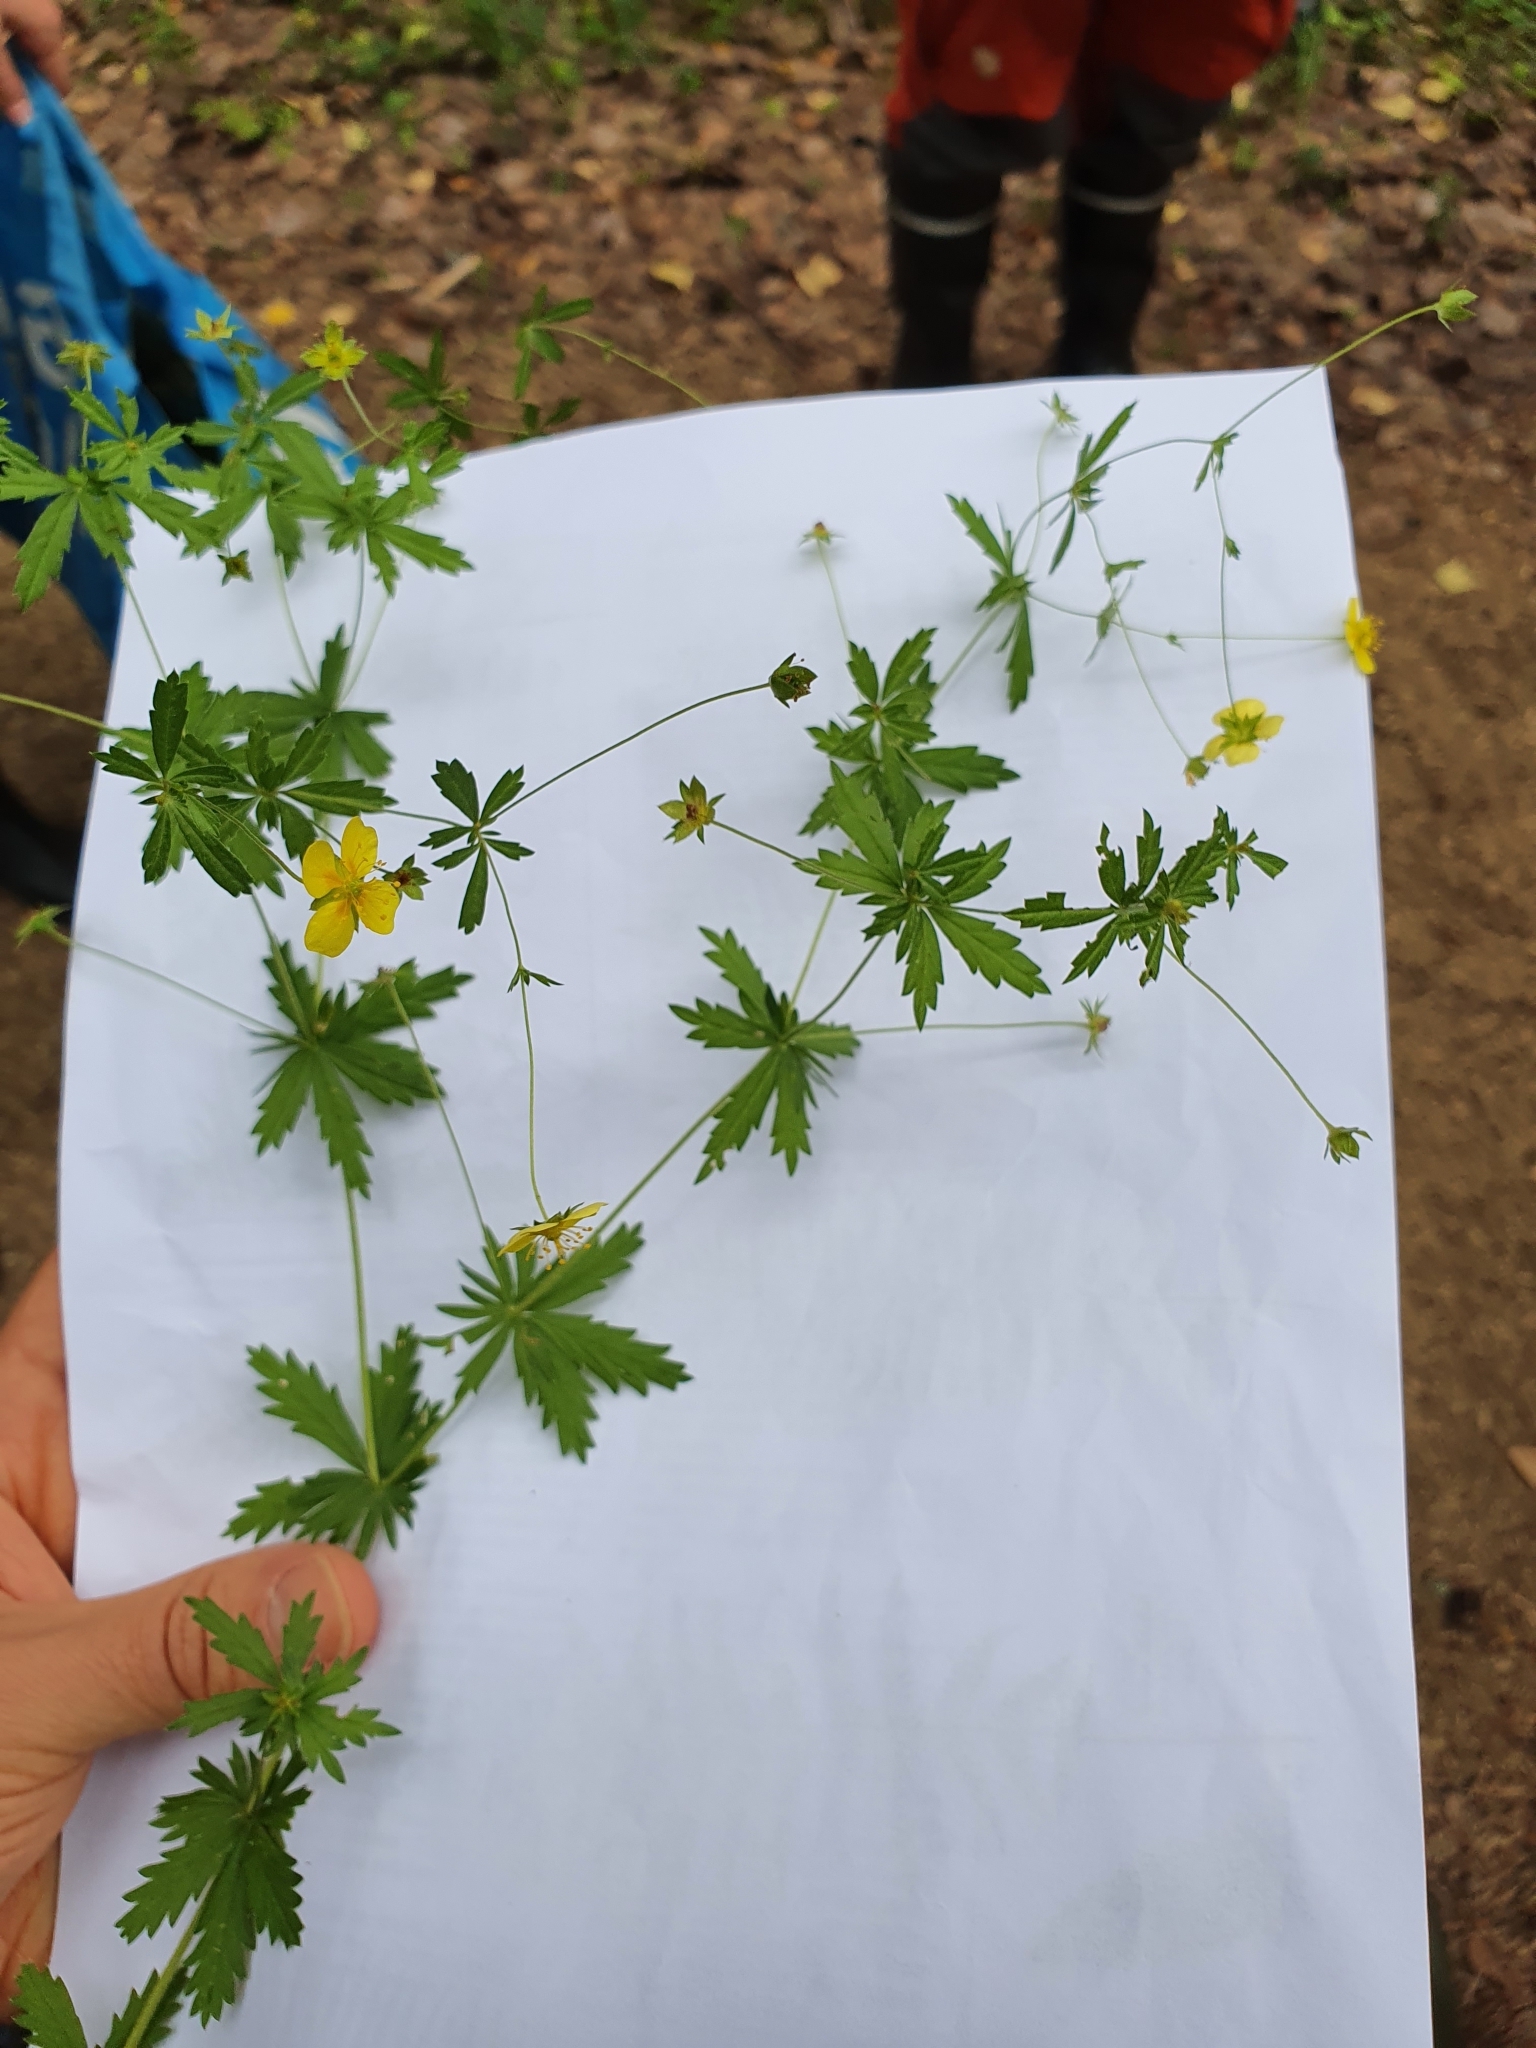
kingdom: Plantae
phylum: Tracheophyta
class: Magnoliopsida
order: Rosales
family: Rosaceae
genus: Potentilla
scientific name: Potentilla erecta
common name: Tormentil
